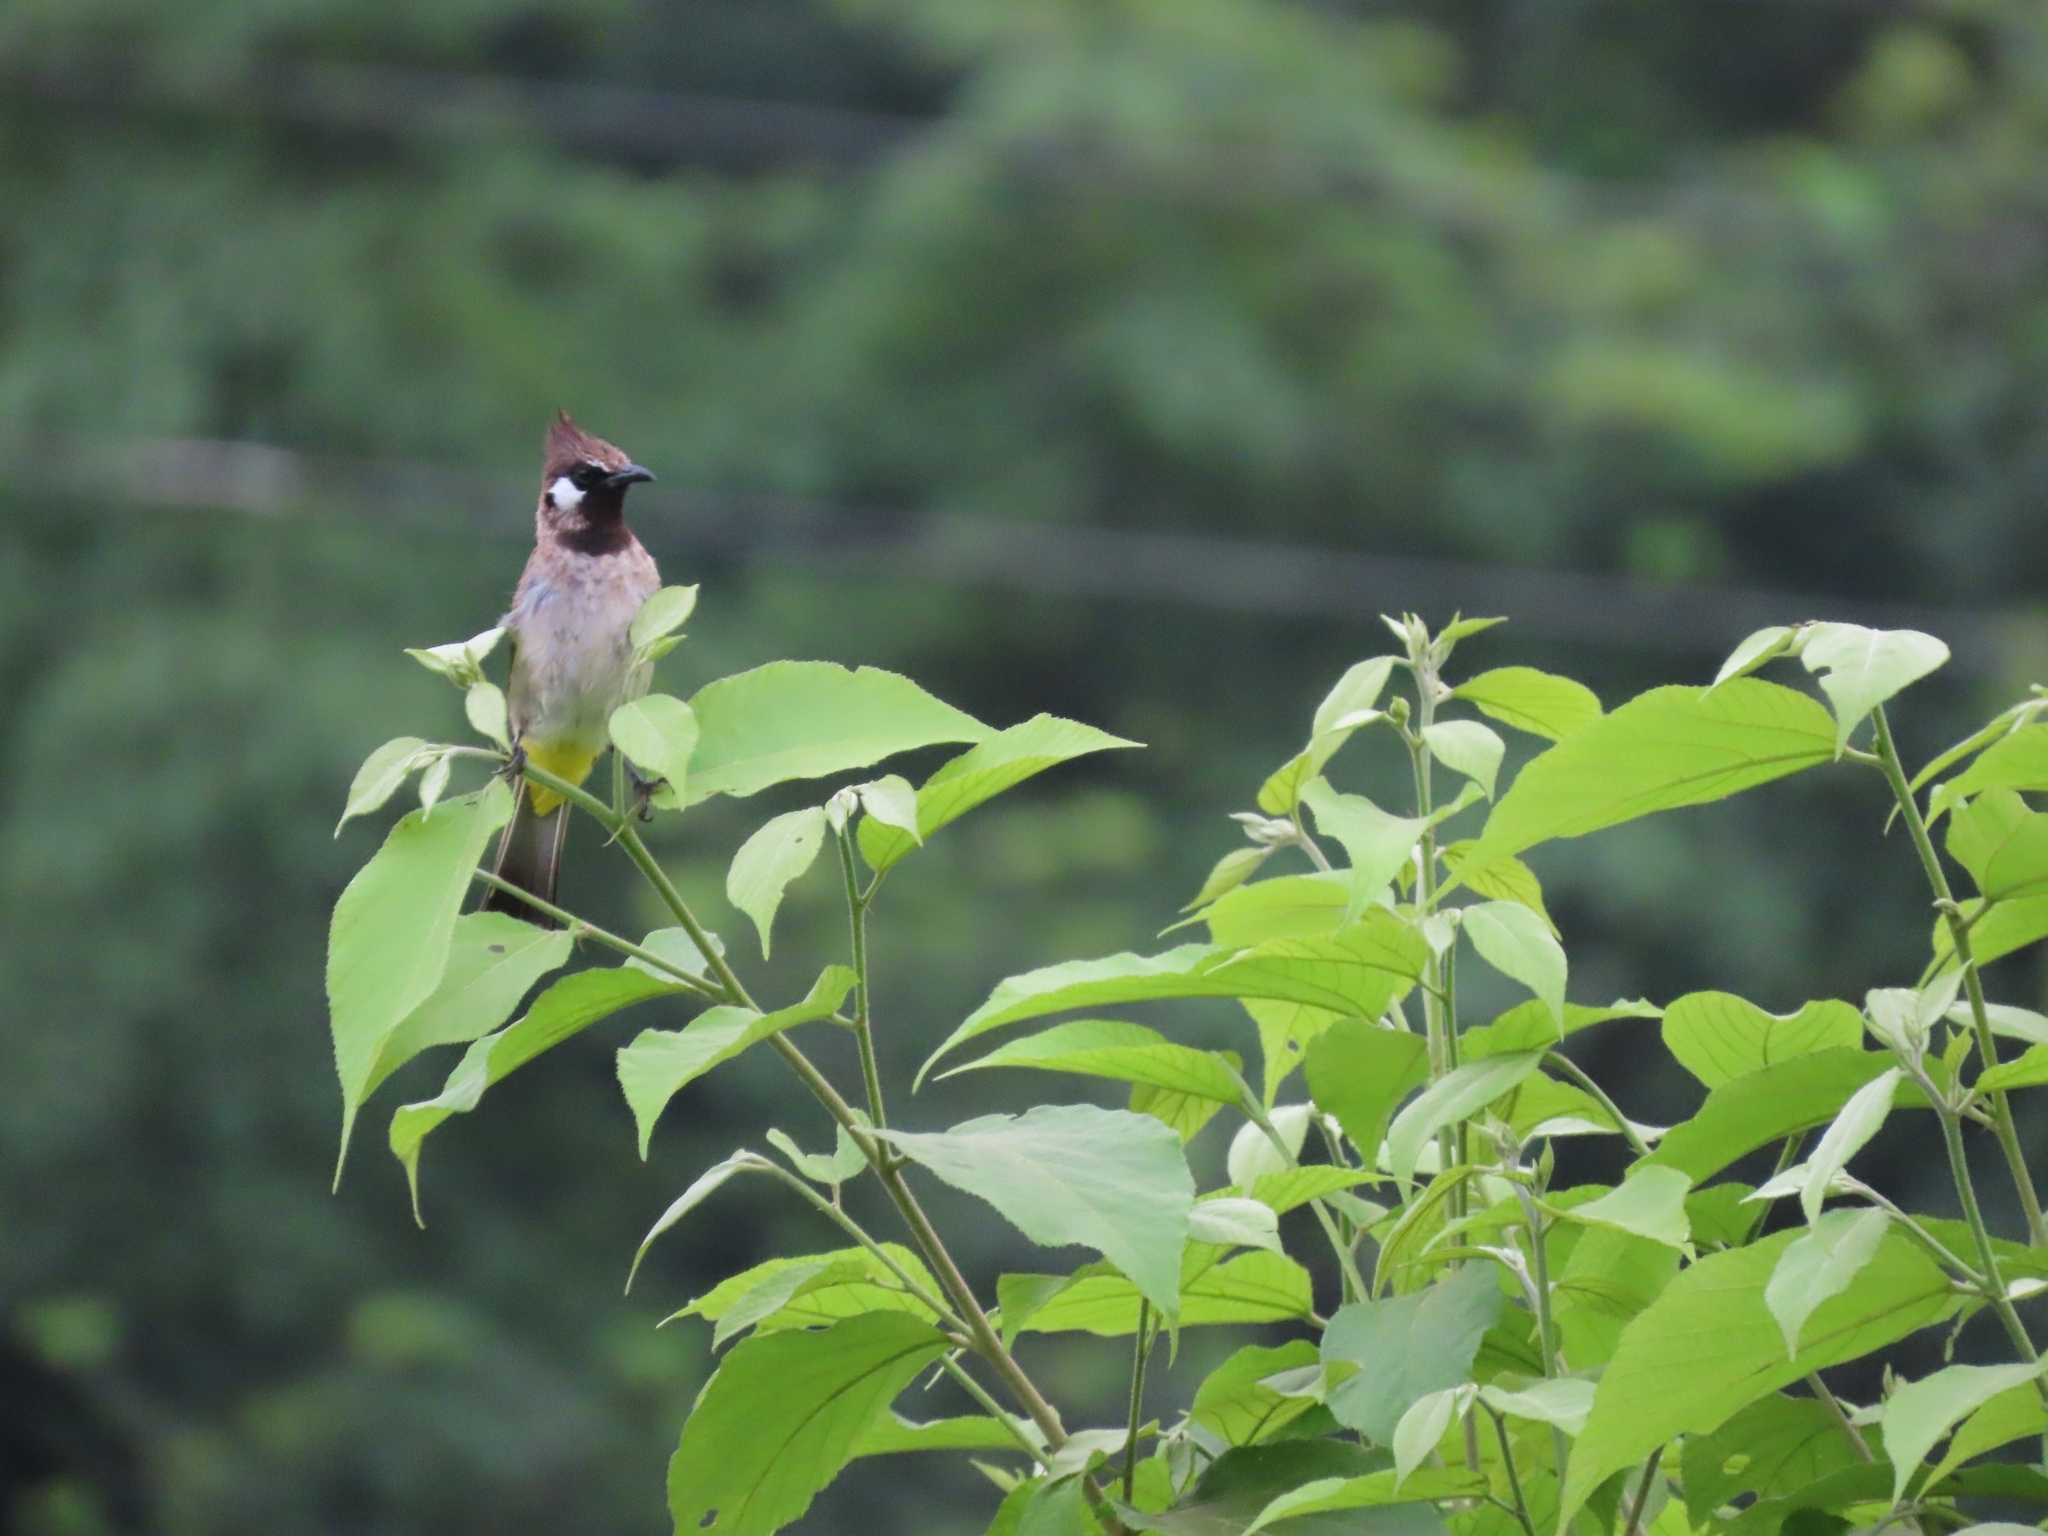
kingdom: Animalia
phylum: Chordata
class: Aves
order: Passeriformes
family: Pycnonotidae
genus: Pycnonotus
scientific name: Pycnonotus leucogenys
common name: Himalayan bulbul
